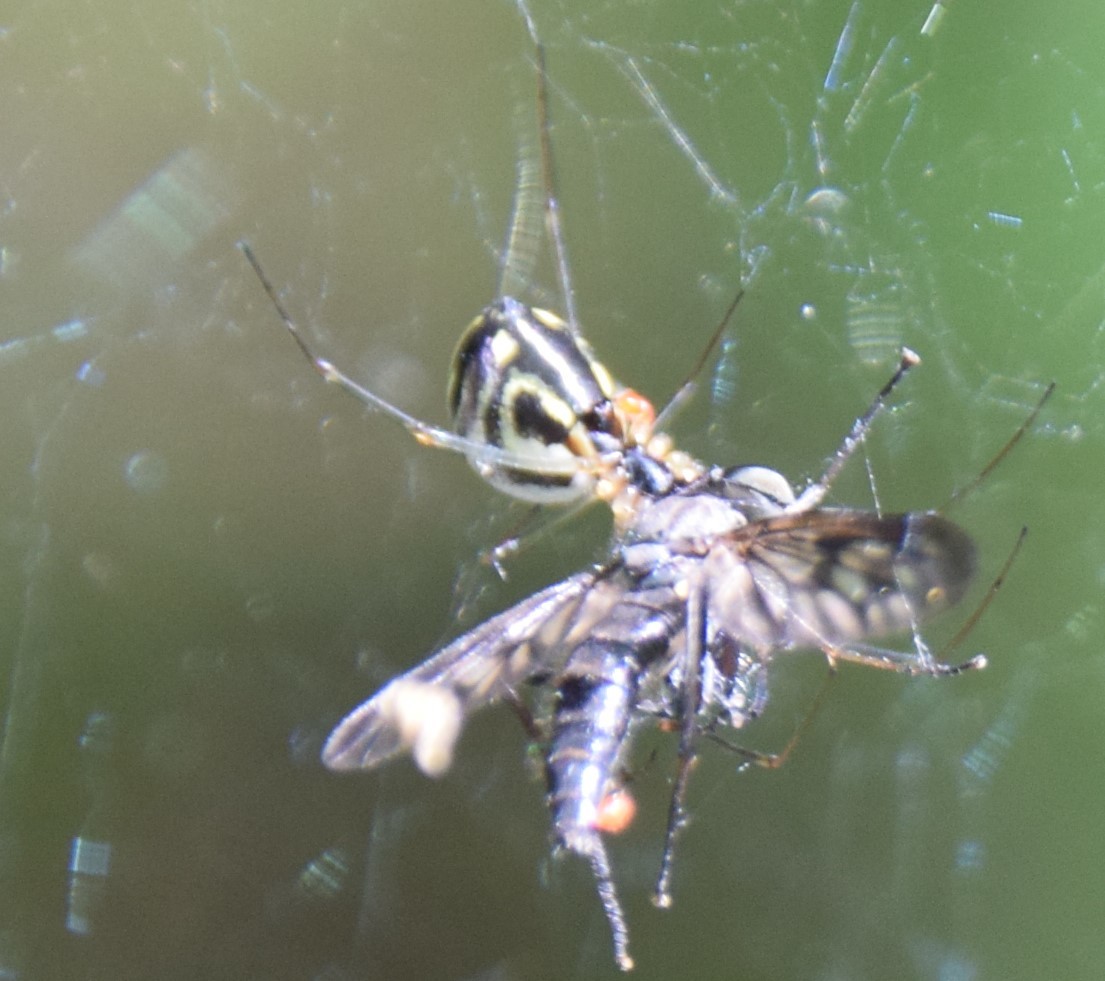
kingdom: Animalia
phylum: Arthropoda
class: Arachnida
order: Araneae
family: Linyphiidae
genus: Neriene
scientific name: Neriene radiata
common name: Filmy dome spider
